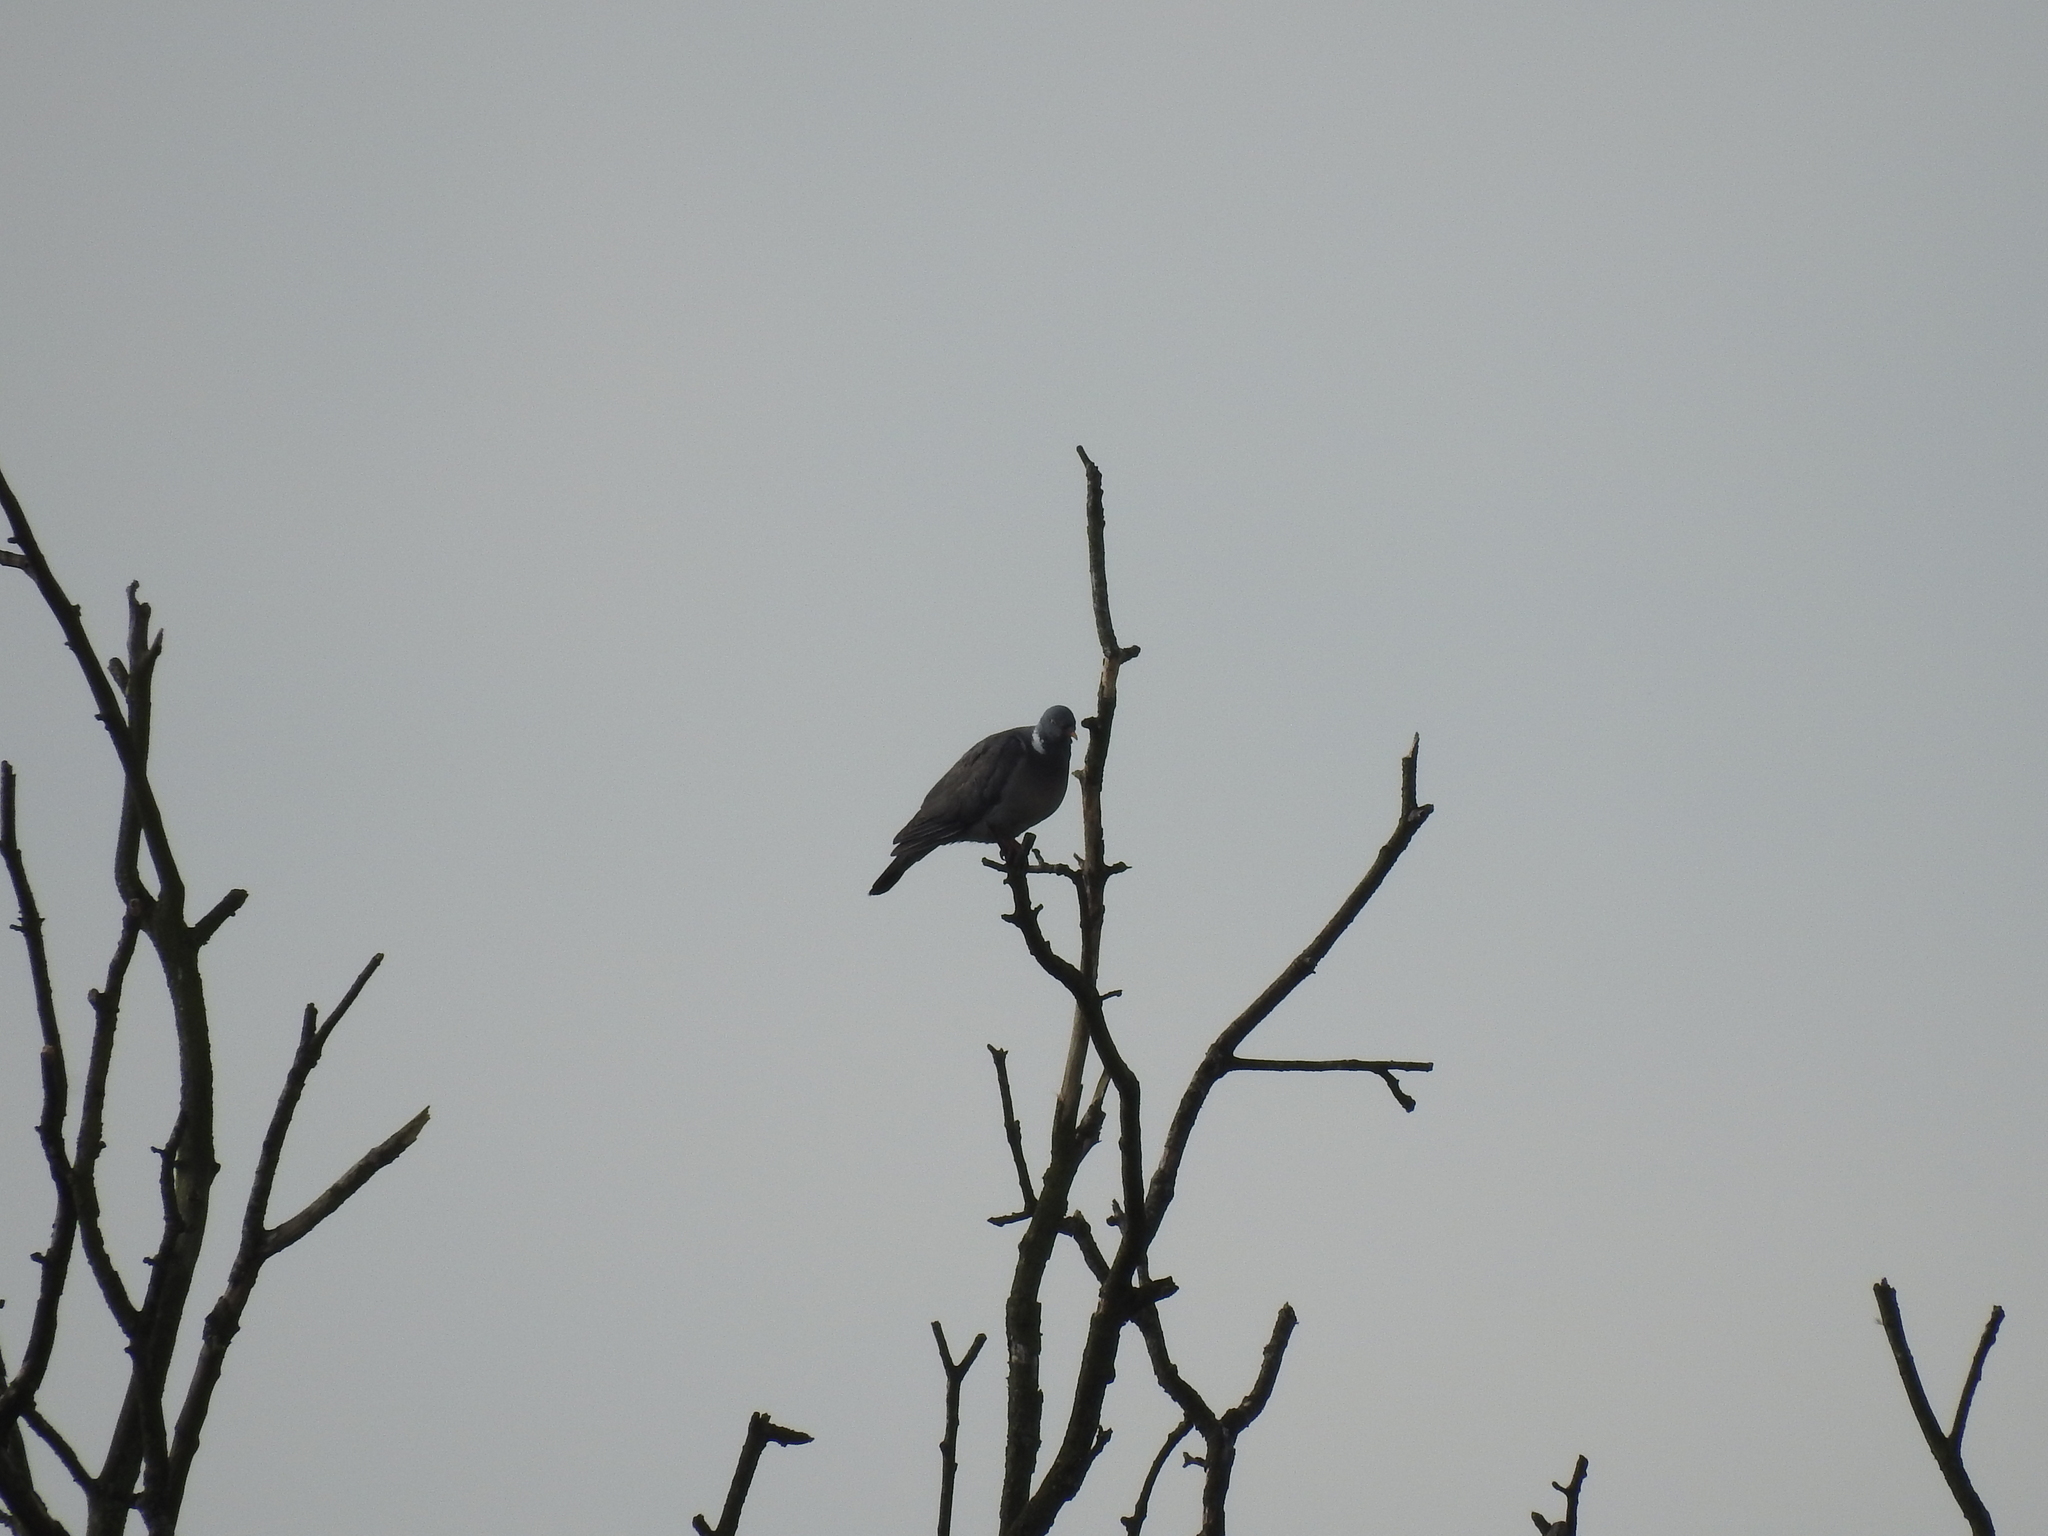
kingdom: Animalia
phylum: Chordata
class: Aves
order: Columbiformes
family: Columbidae
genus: Columba
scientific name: Columba palumbus
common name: Common wood pigeon
